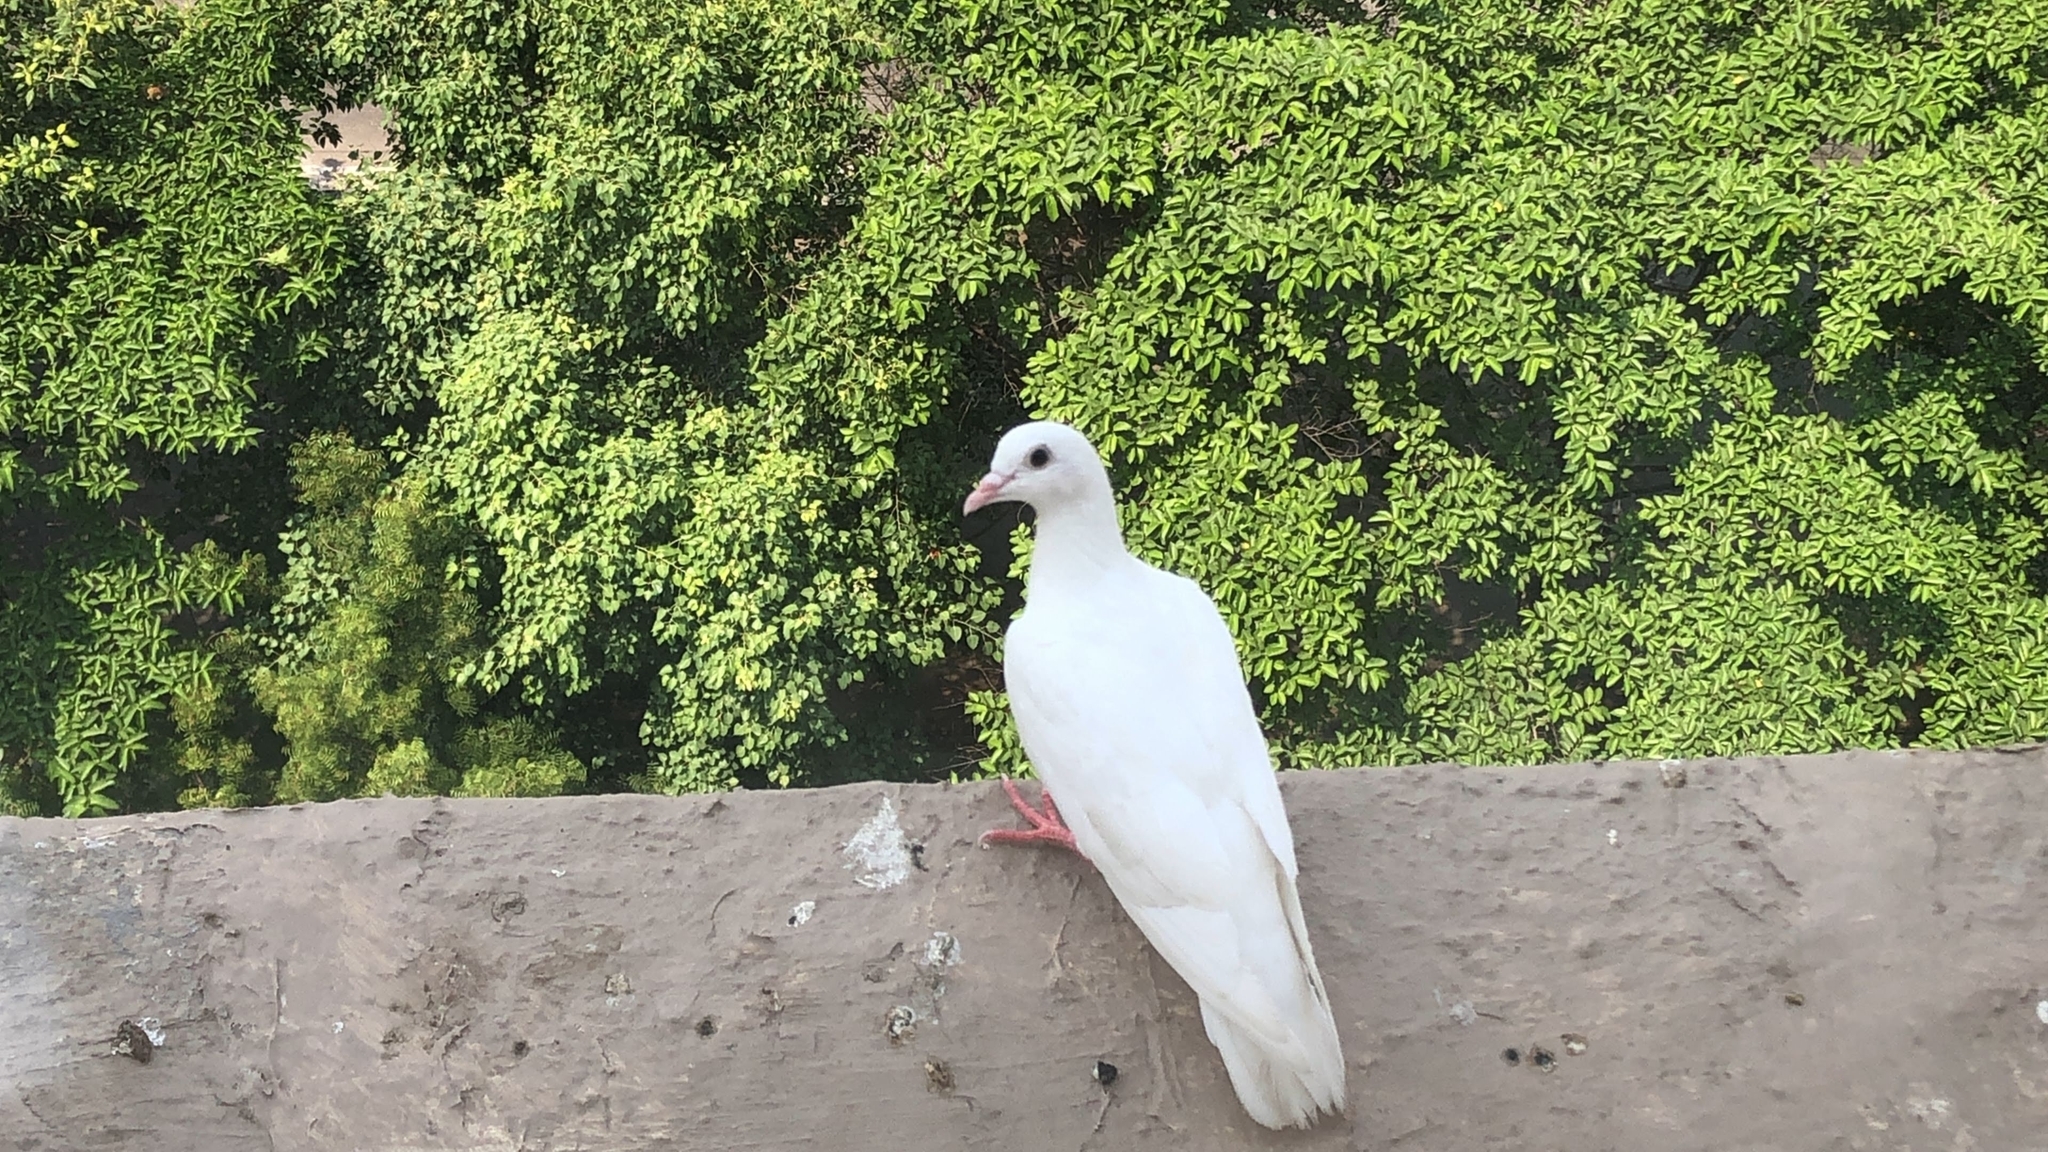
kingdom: Animalia
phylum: Chordata
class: Aves
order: Columbiformes
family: Columbidae
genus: Columba
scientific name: Columba livia
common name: Rock pigeon
